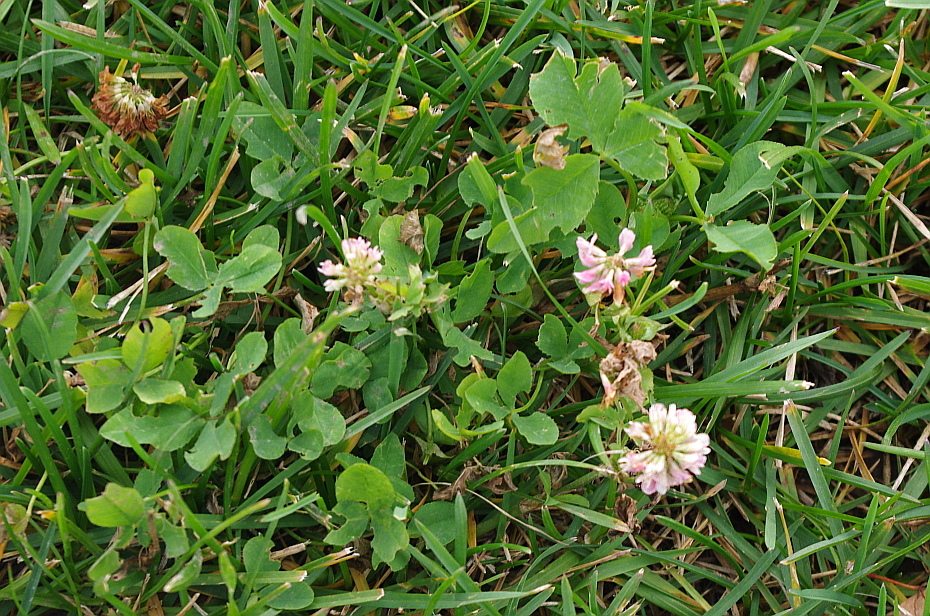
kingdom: Plantae
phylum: Tracheophyta
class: Magnoliopsida
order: Fabales
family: Fabaceae
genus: Trifolium
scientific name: Trifolium hybridum
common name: Alsike clover
